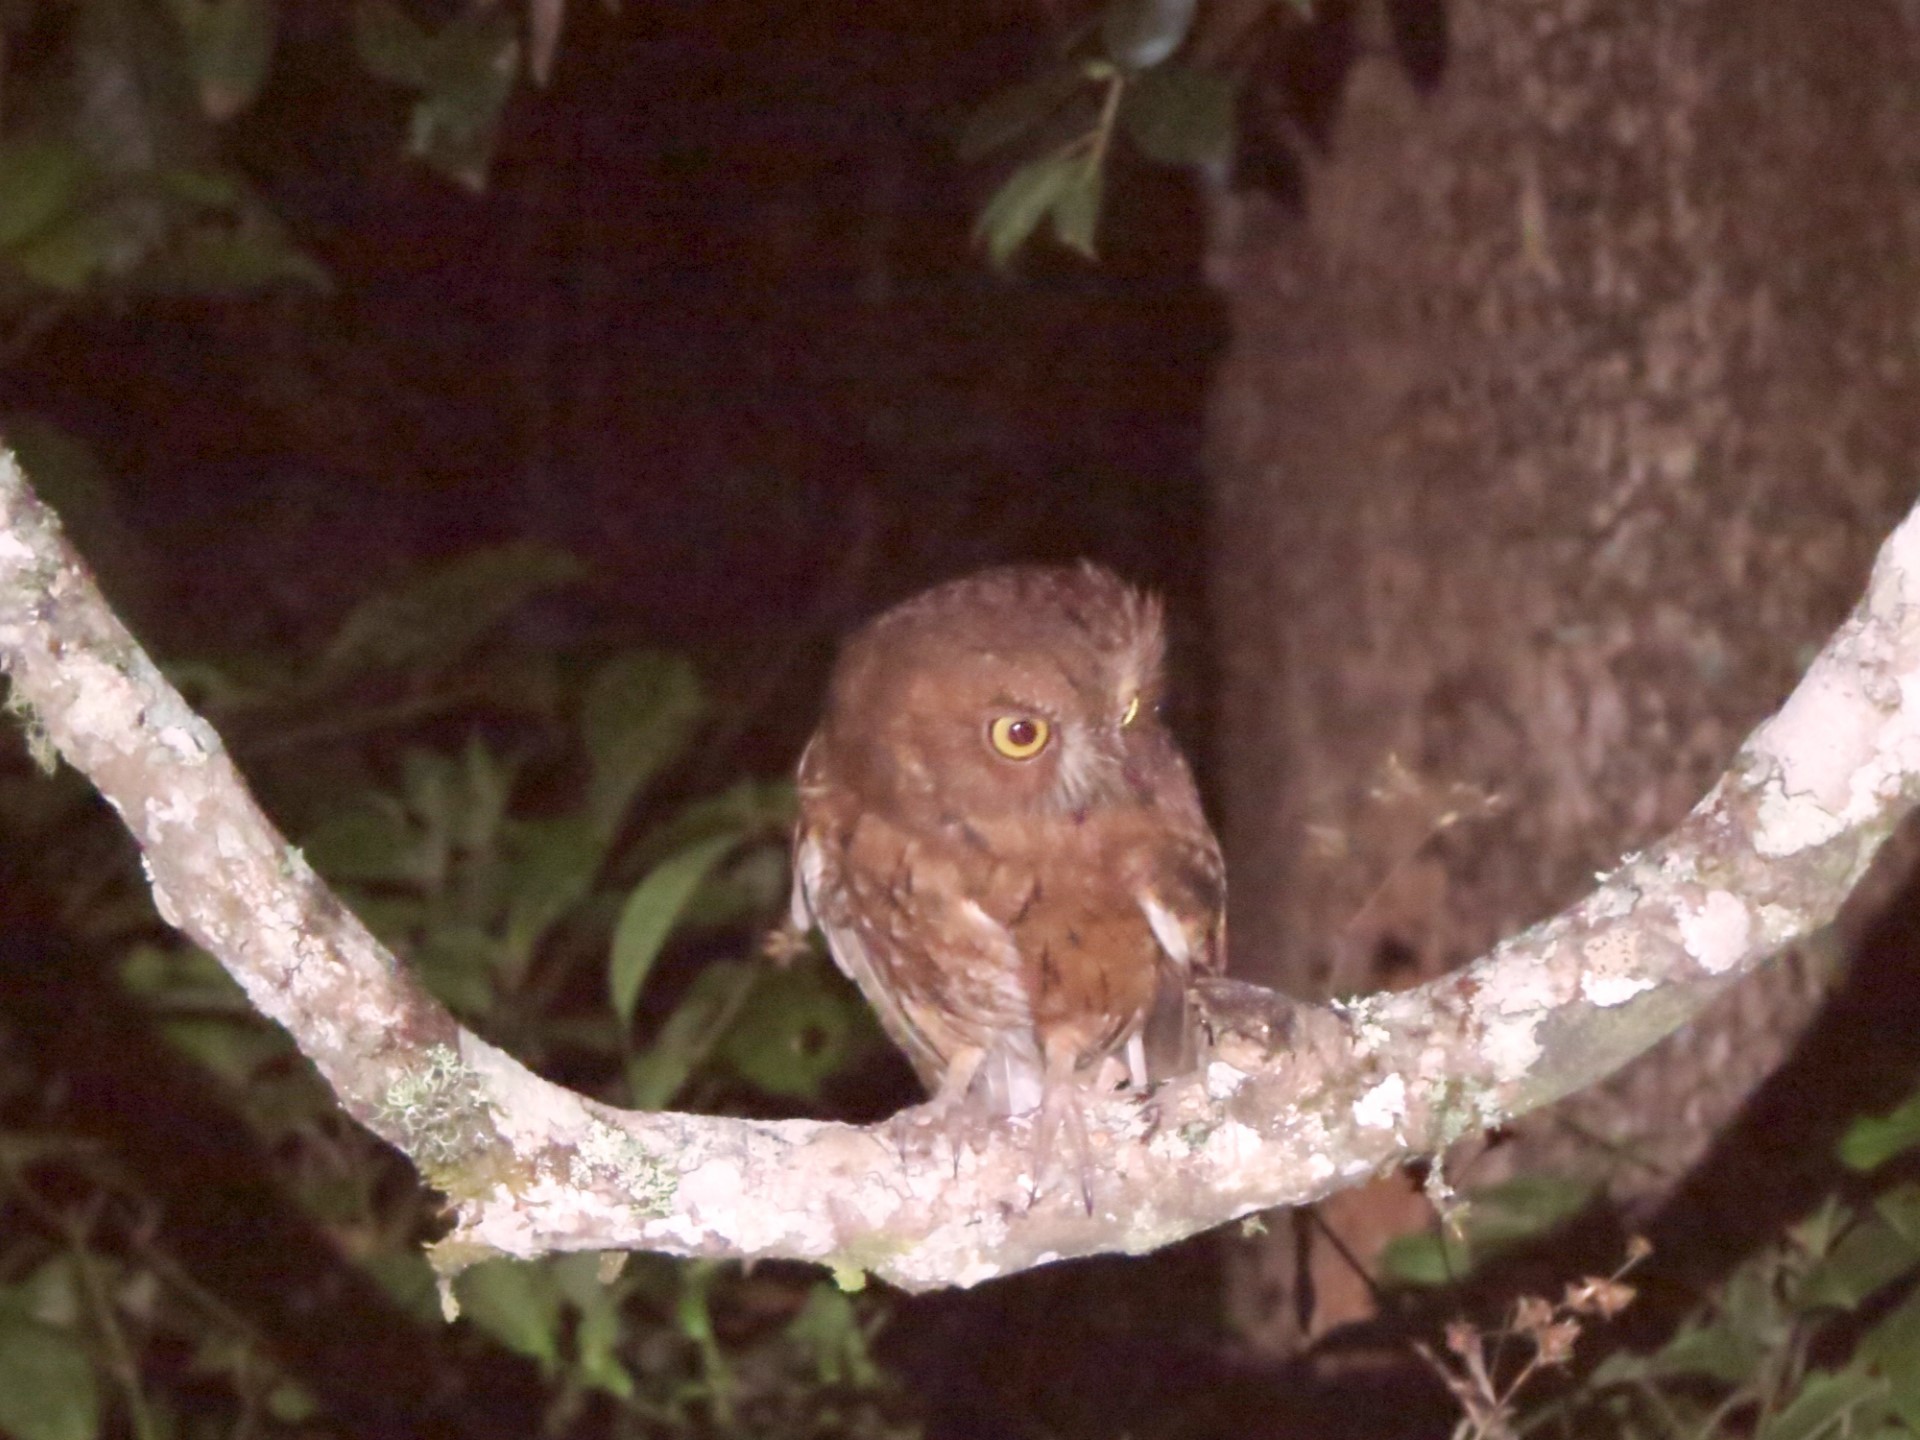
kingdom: Animalia
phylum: Chordata
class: Aves
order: Strigiformes
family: Strigidae
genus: Otus
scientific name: Otus rutilus
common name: Rainforest scops owl
